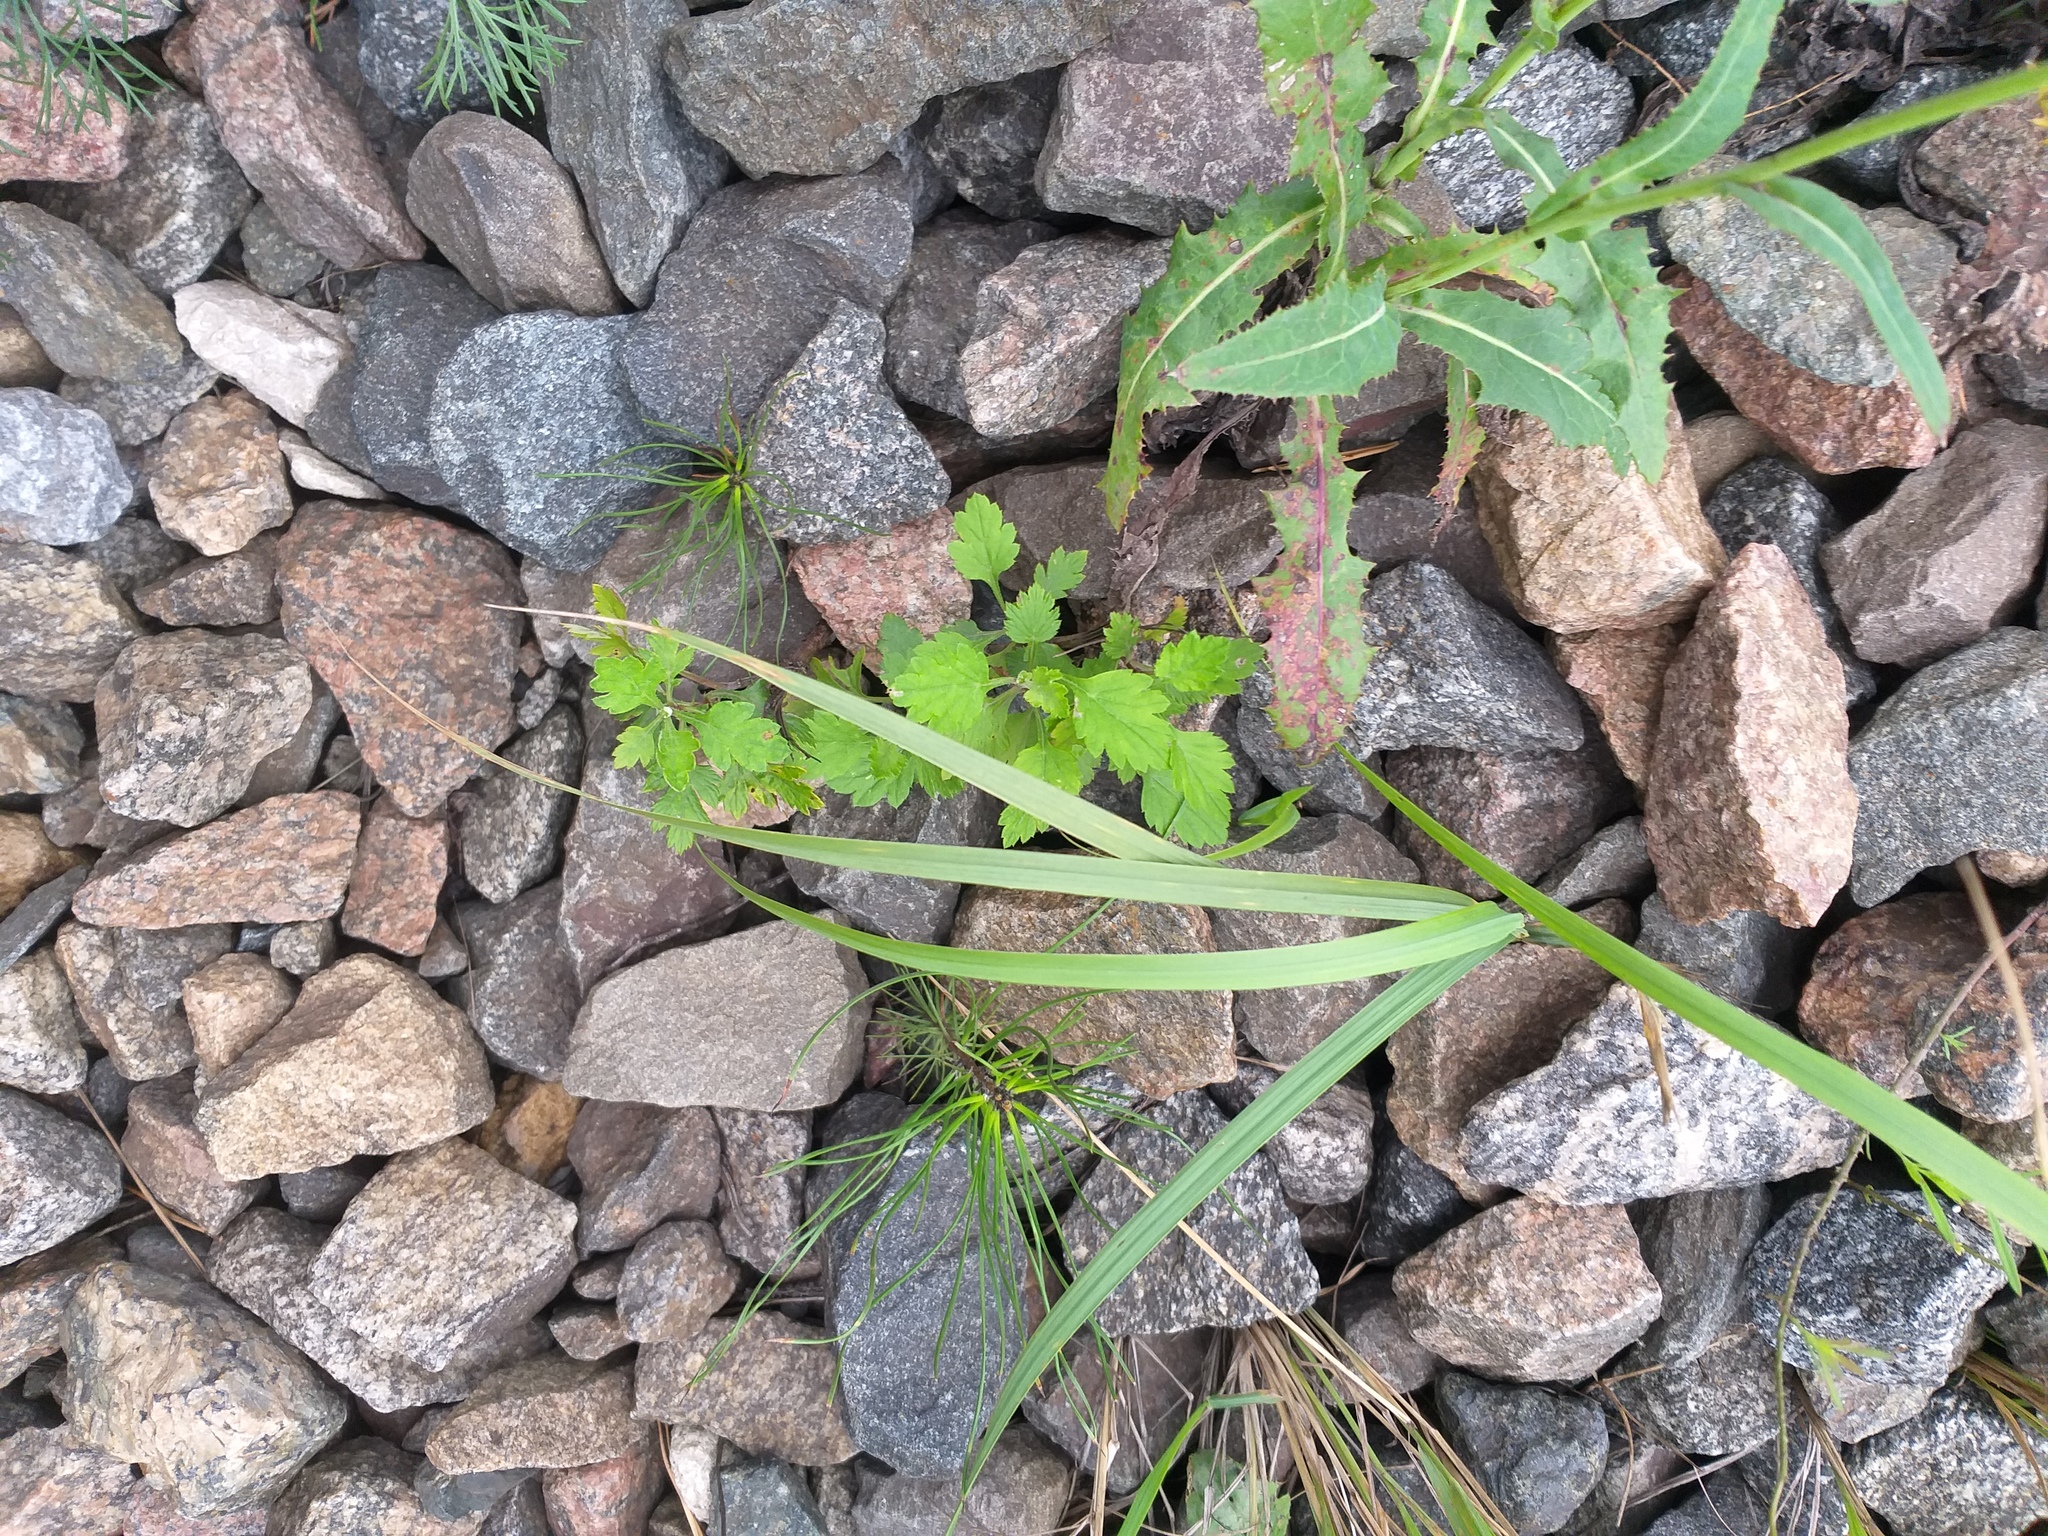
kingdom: Plantae
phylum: Tracheophyta
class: Magnoliopsida
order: Asterales
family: Asteraceae
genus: Artemisia
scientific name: Artemisia vulgaris
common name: Mugwort
